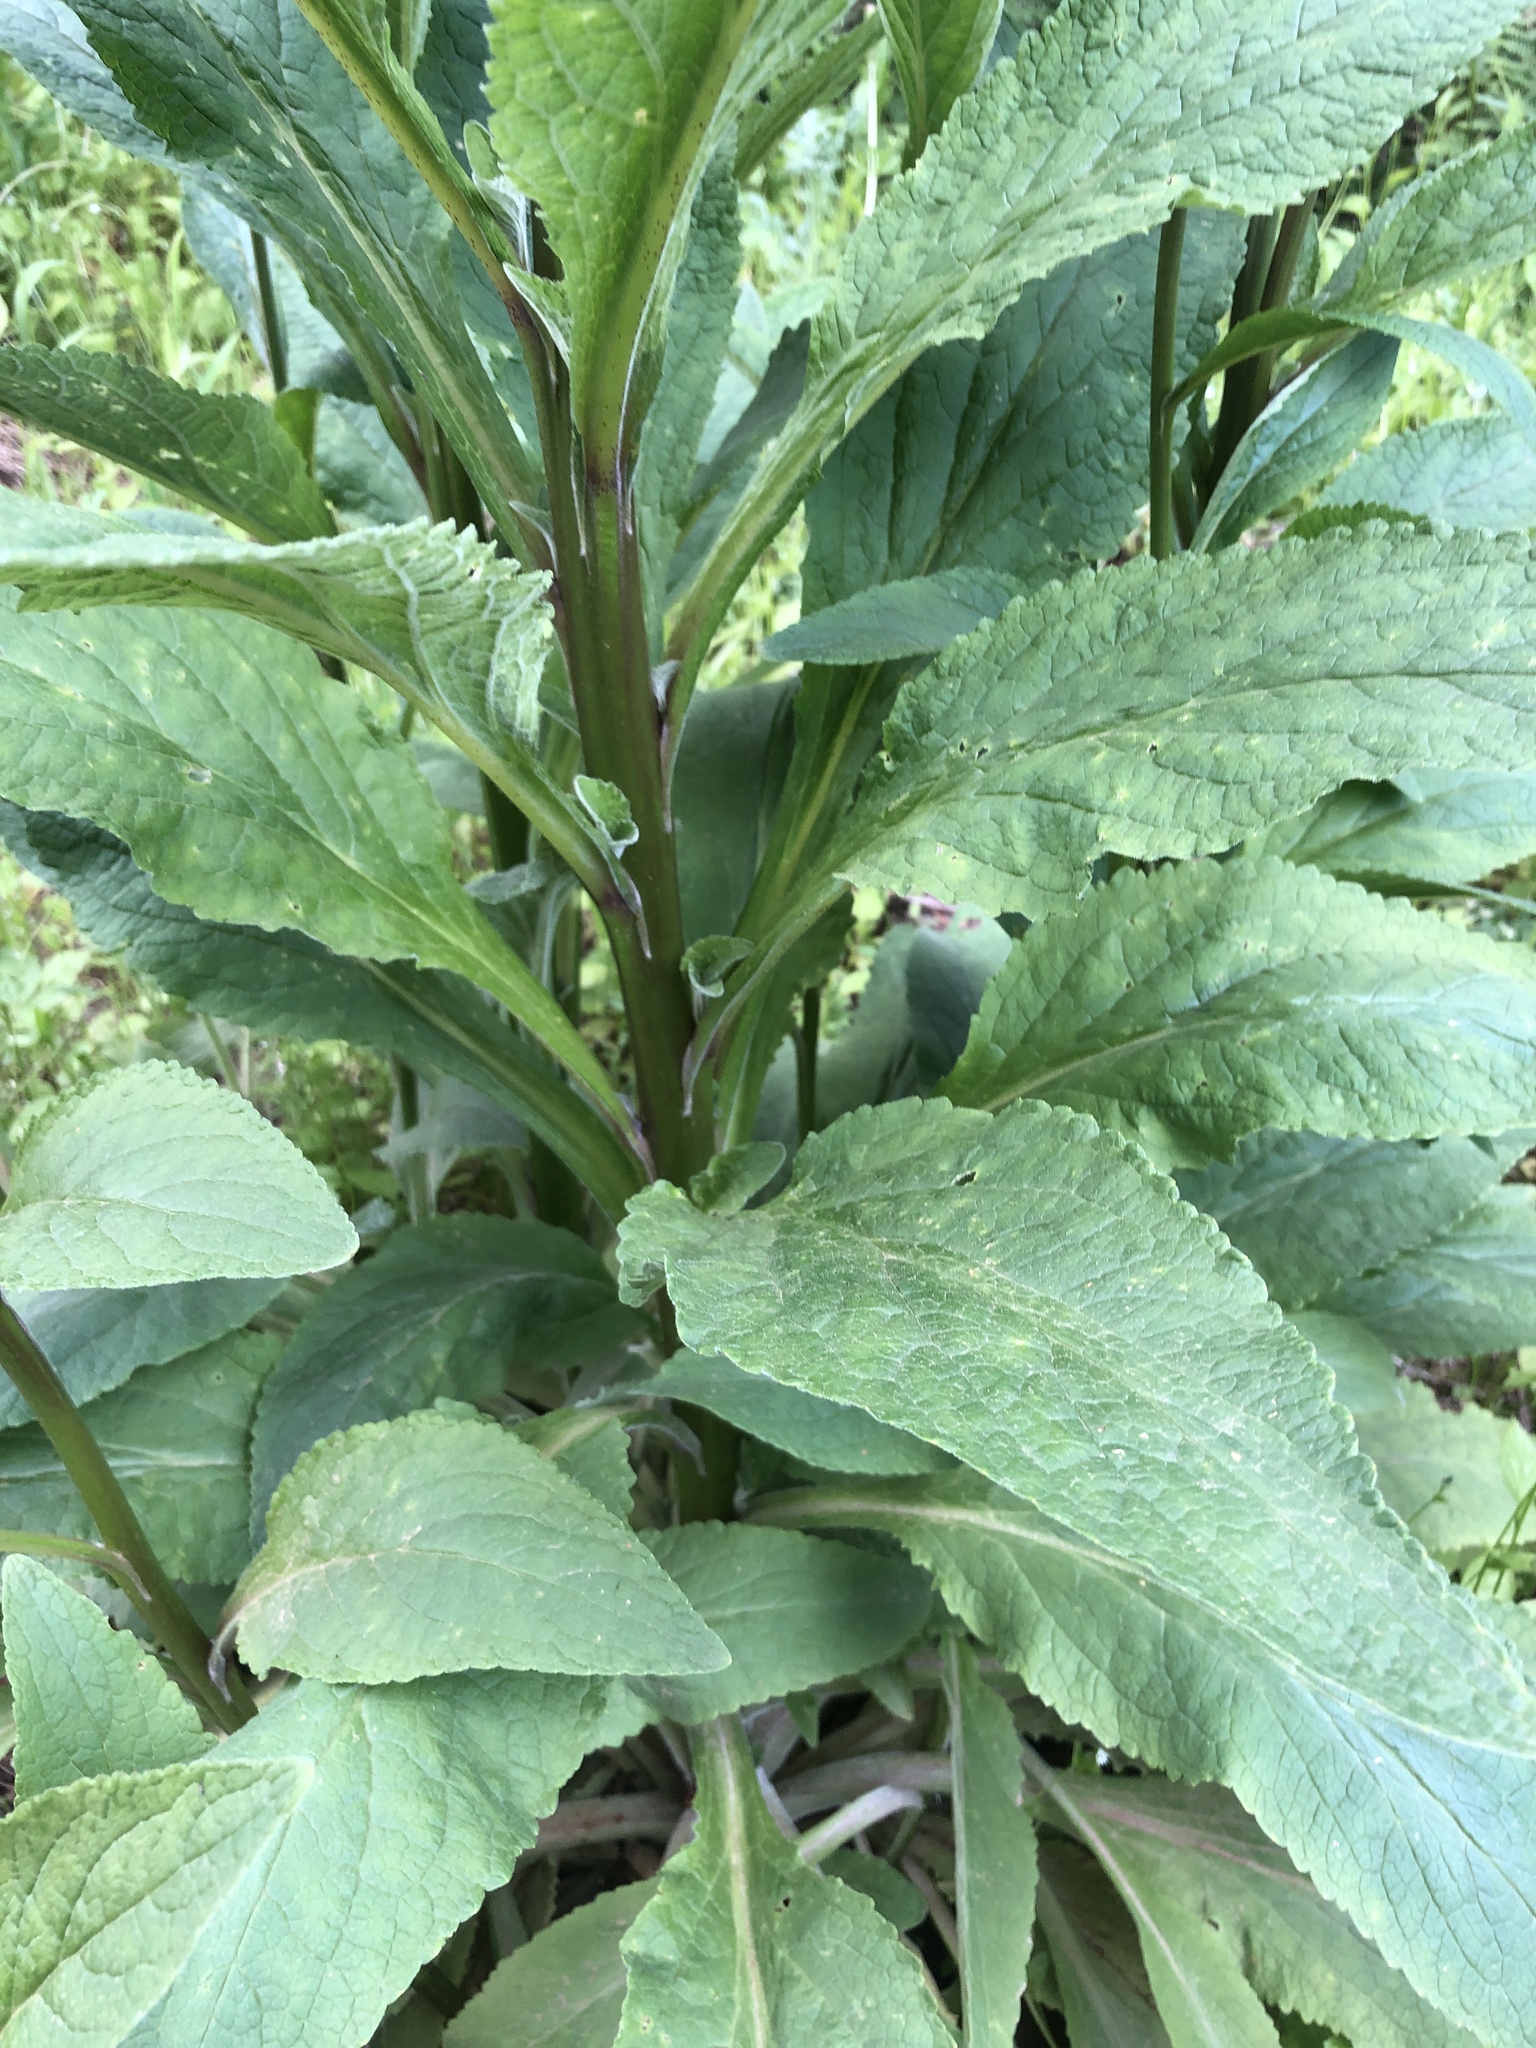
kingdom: Plantae
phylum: Tracheophyta
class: Magnoliopsida
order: Lamiales
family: Plantaginaceae
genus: Digitalis
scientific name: Digitalis purpurea
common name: Foxglove
